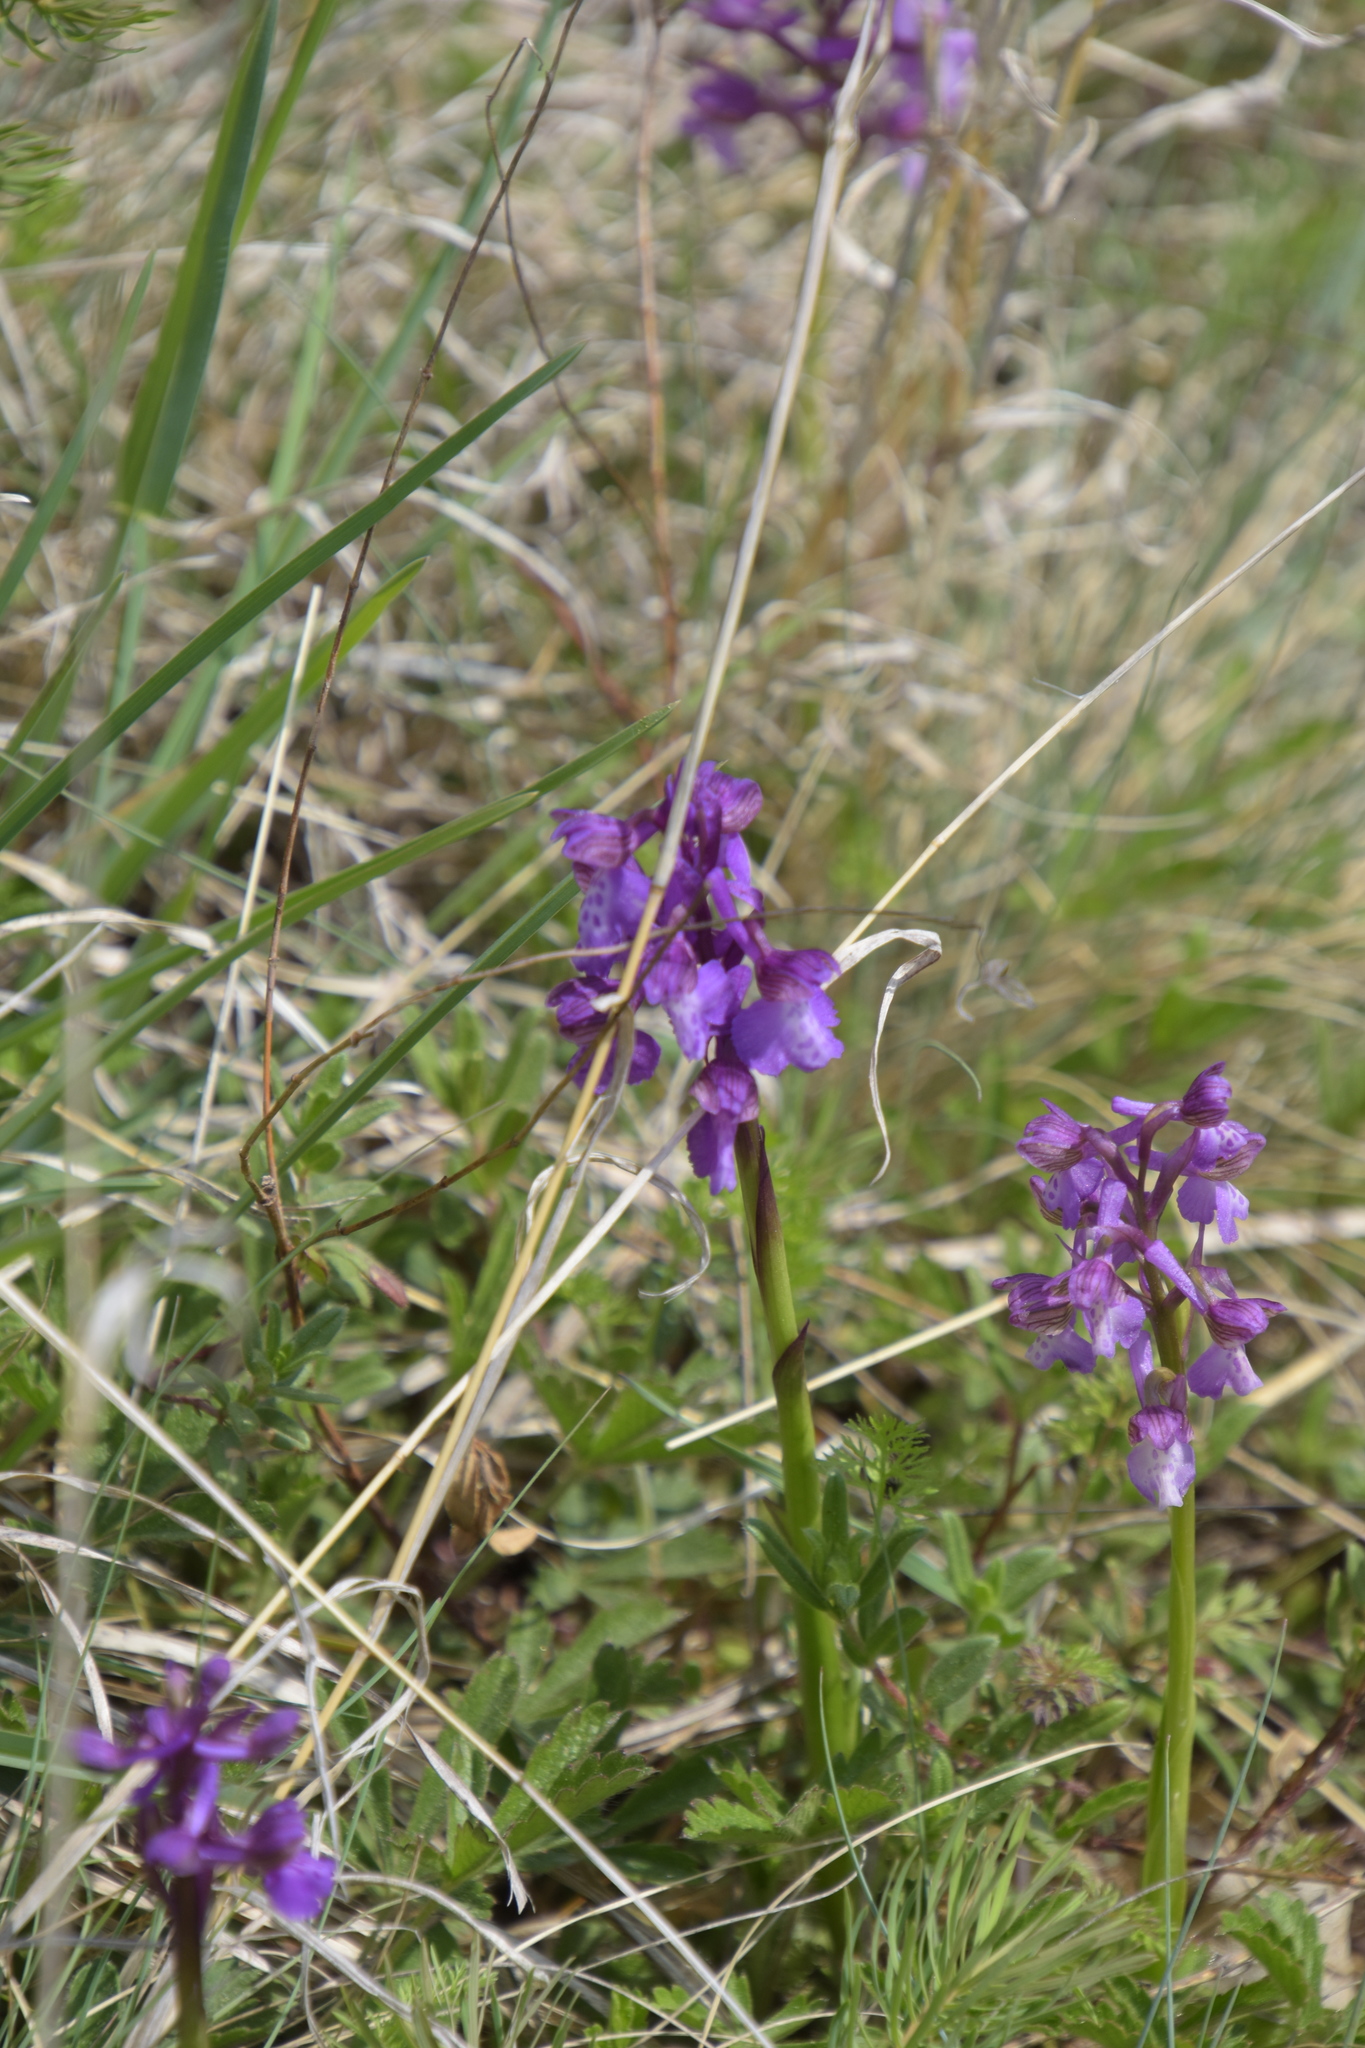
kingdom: Plantae
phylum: Tracheophyta
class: Liliopsida
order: Asparagales
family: Orchidaceae
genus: Anacamptis
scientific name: Anacamptis morio
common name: Green-winged orchid
